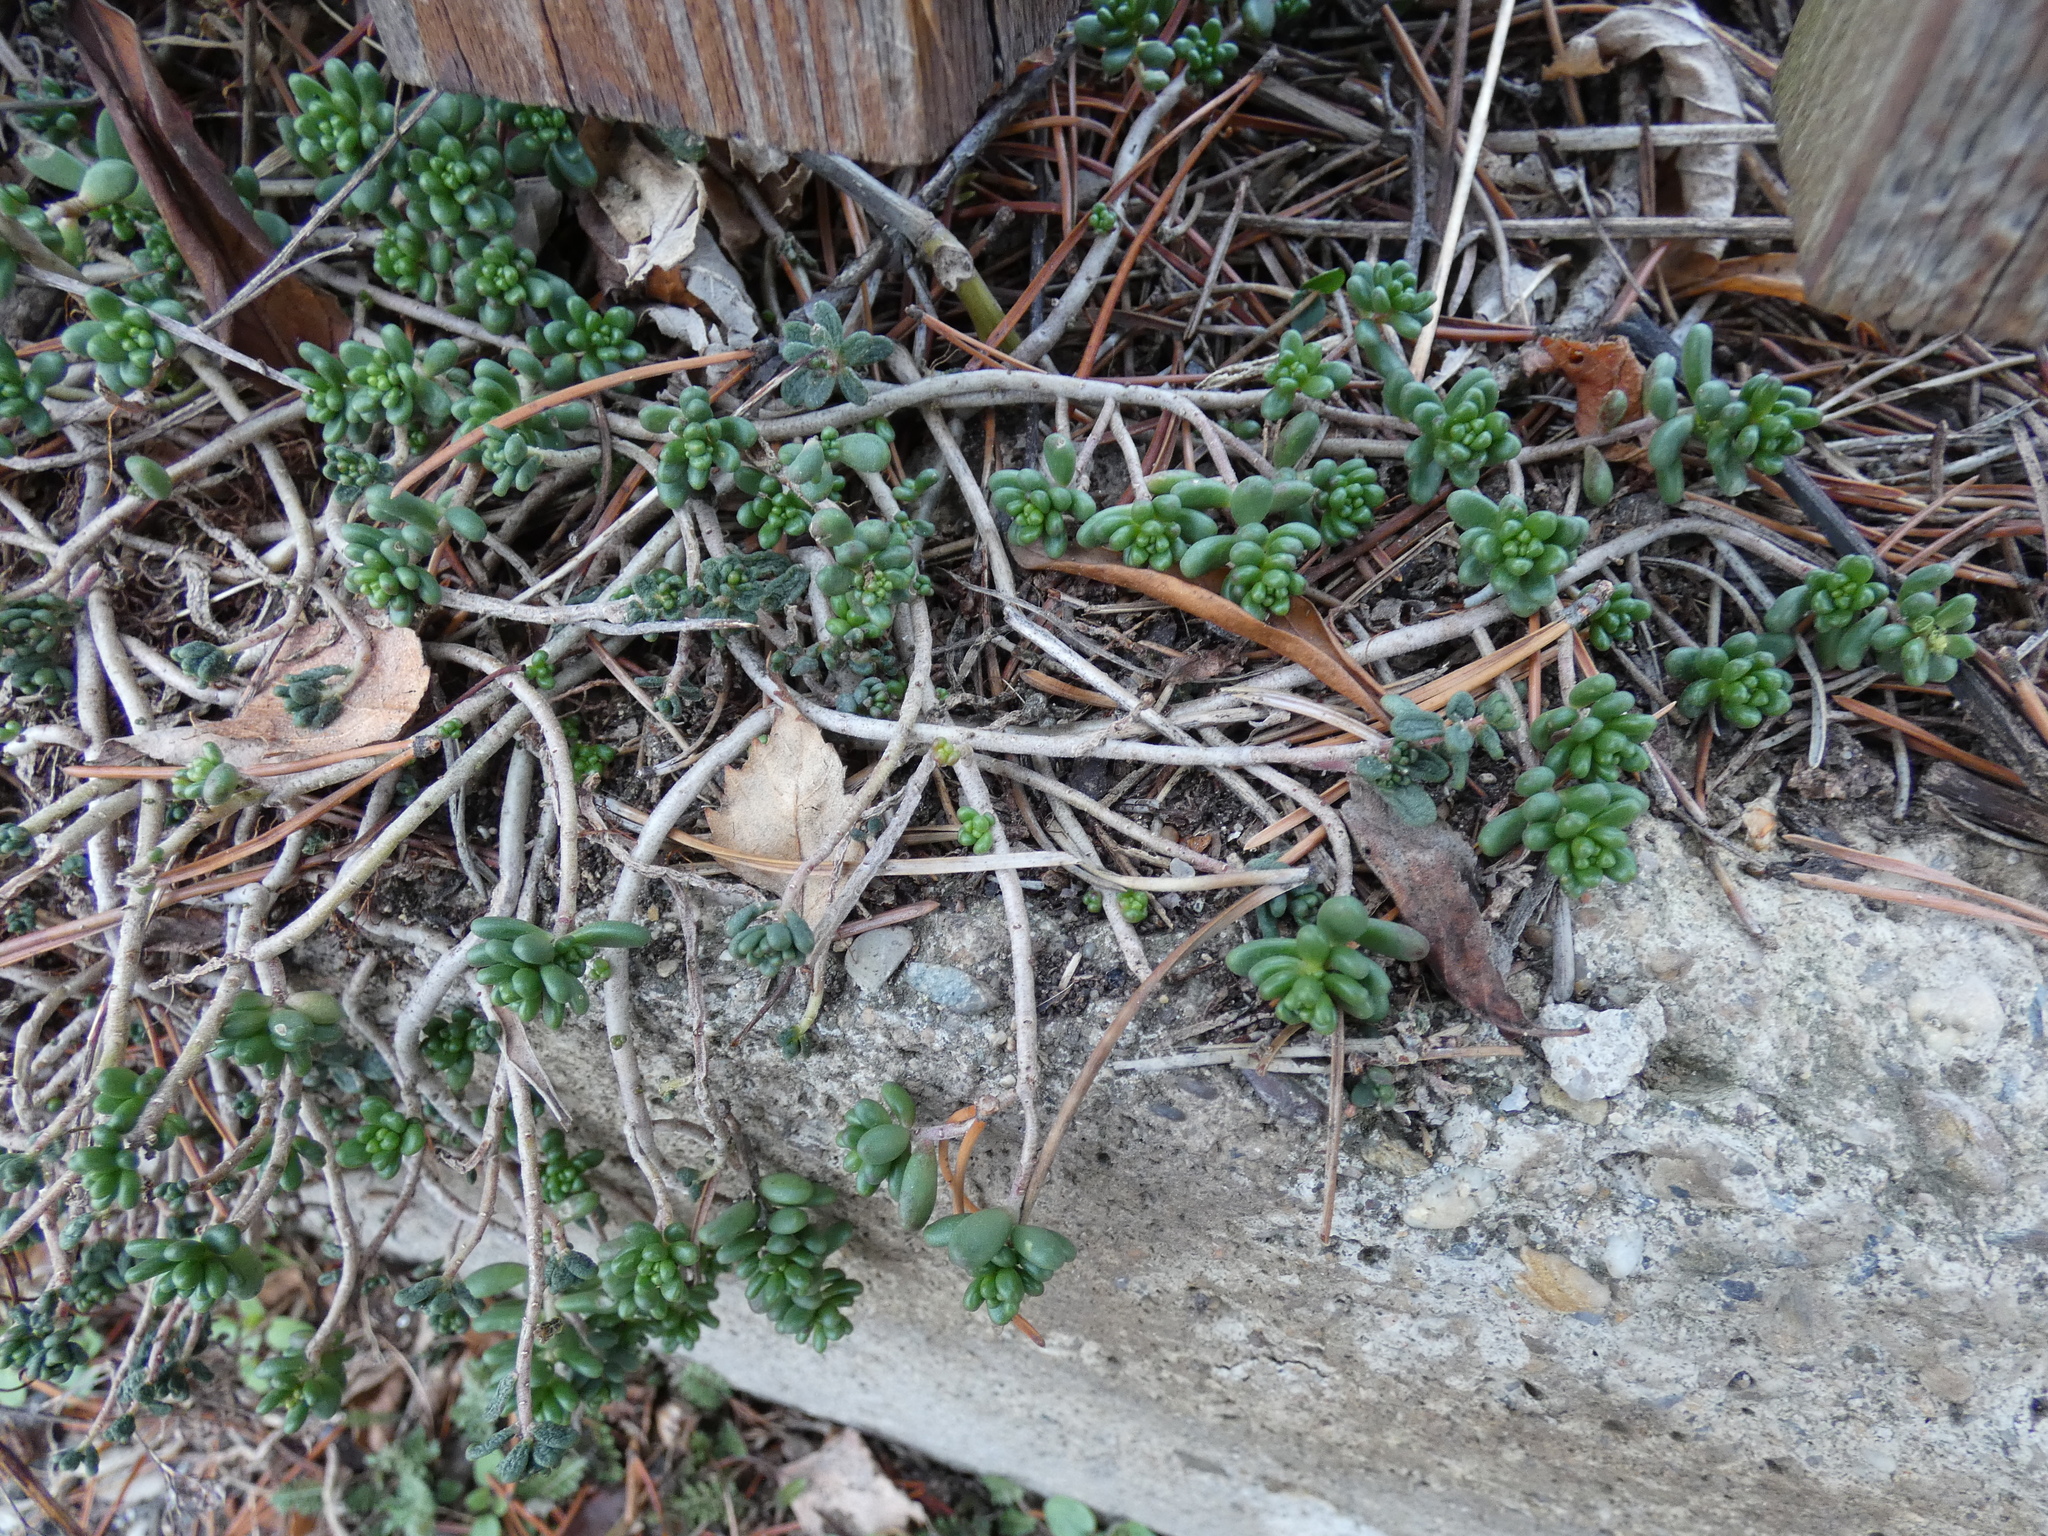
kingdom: Plantae
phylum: Tracheophyta
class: Magnoliopsida
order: Saxifragales
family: Crassulaceae
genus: Sedum
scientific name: Sedum album
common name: White stonecrop
